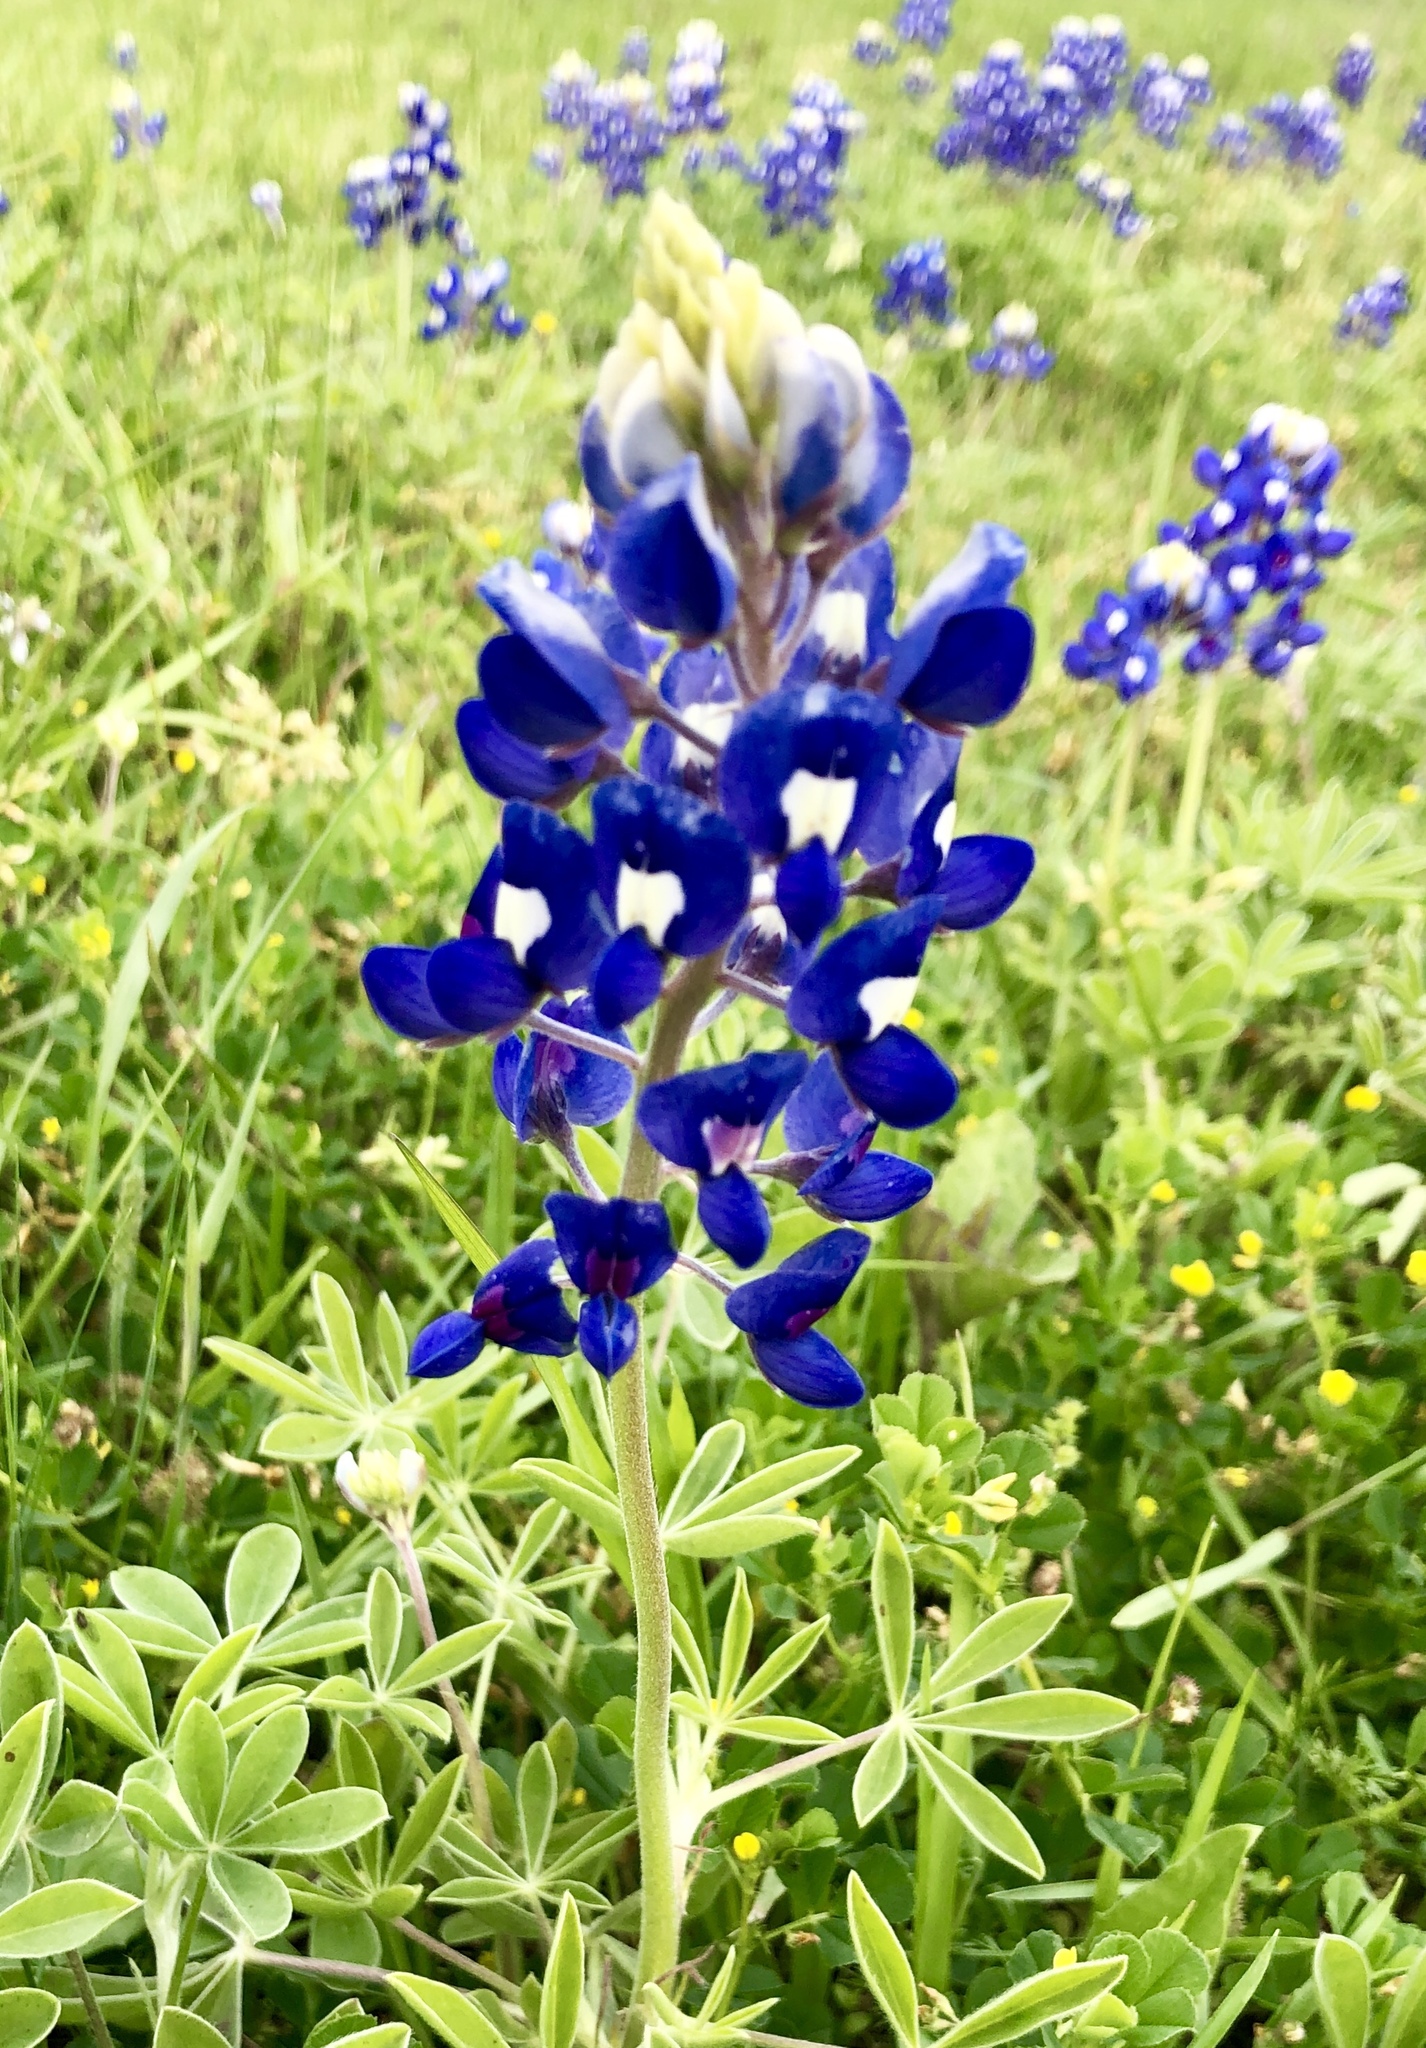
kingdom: Plantae
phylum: Tracheophyta
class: Magnoliopsida
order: Fabales
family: Fabaceae
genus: Lupinus
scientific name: Lupinus texensis
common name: Texas bluebonnet
